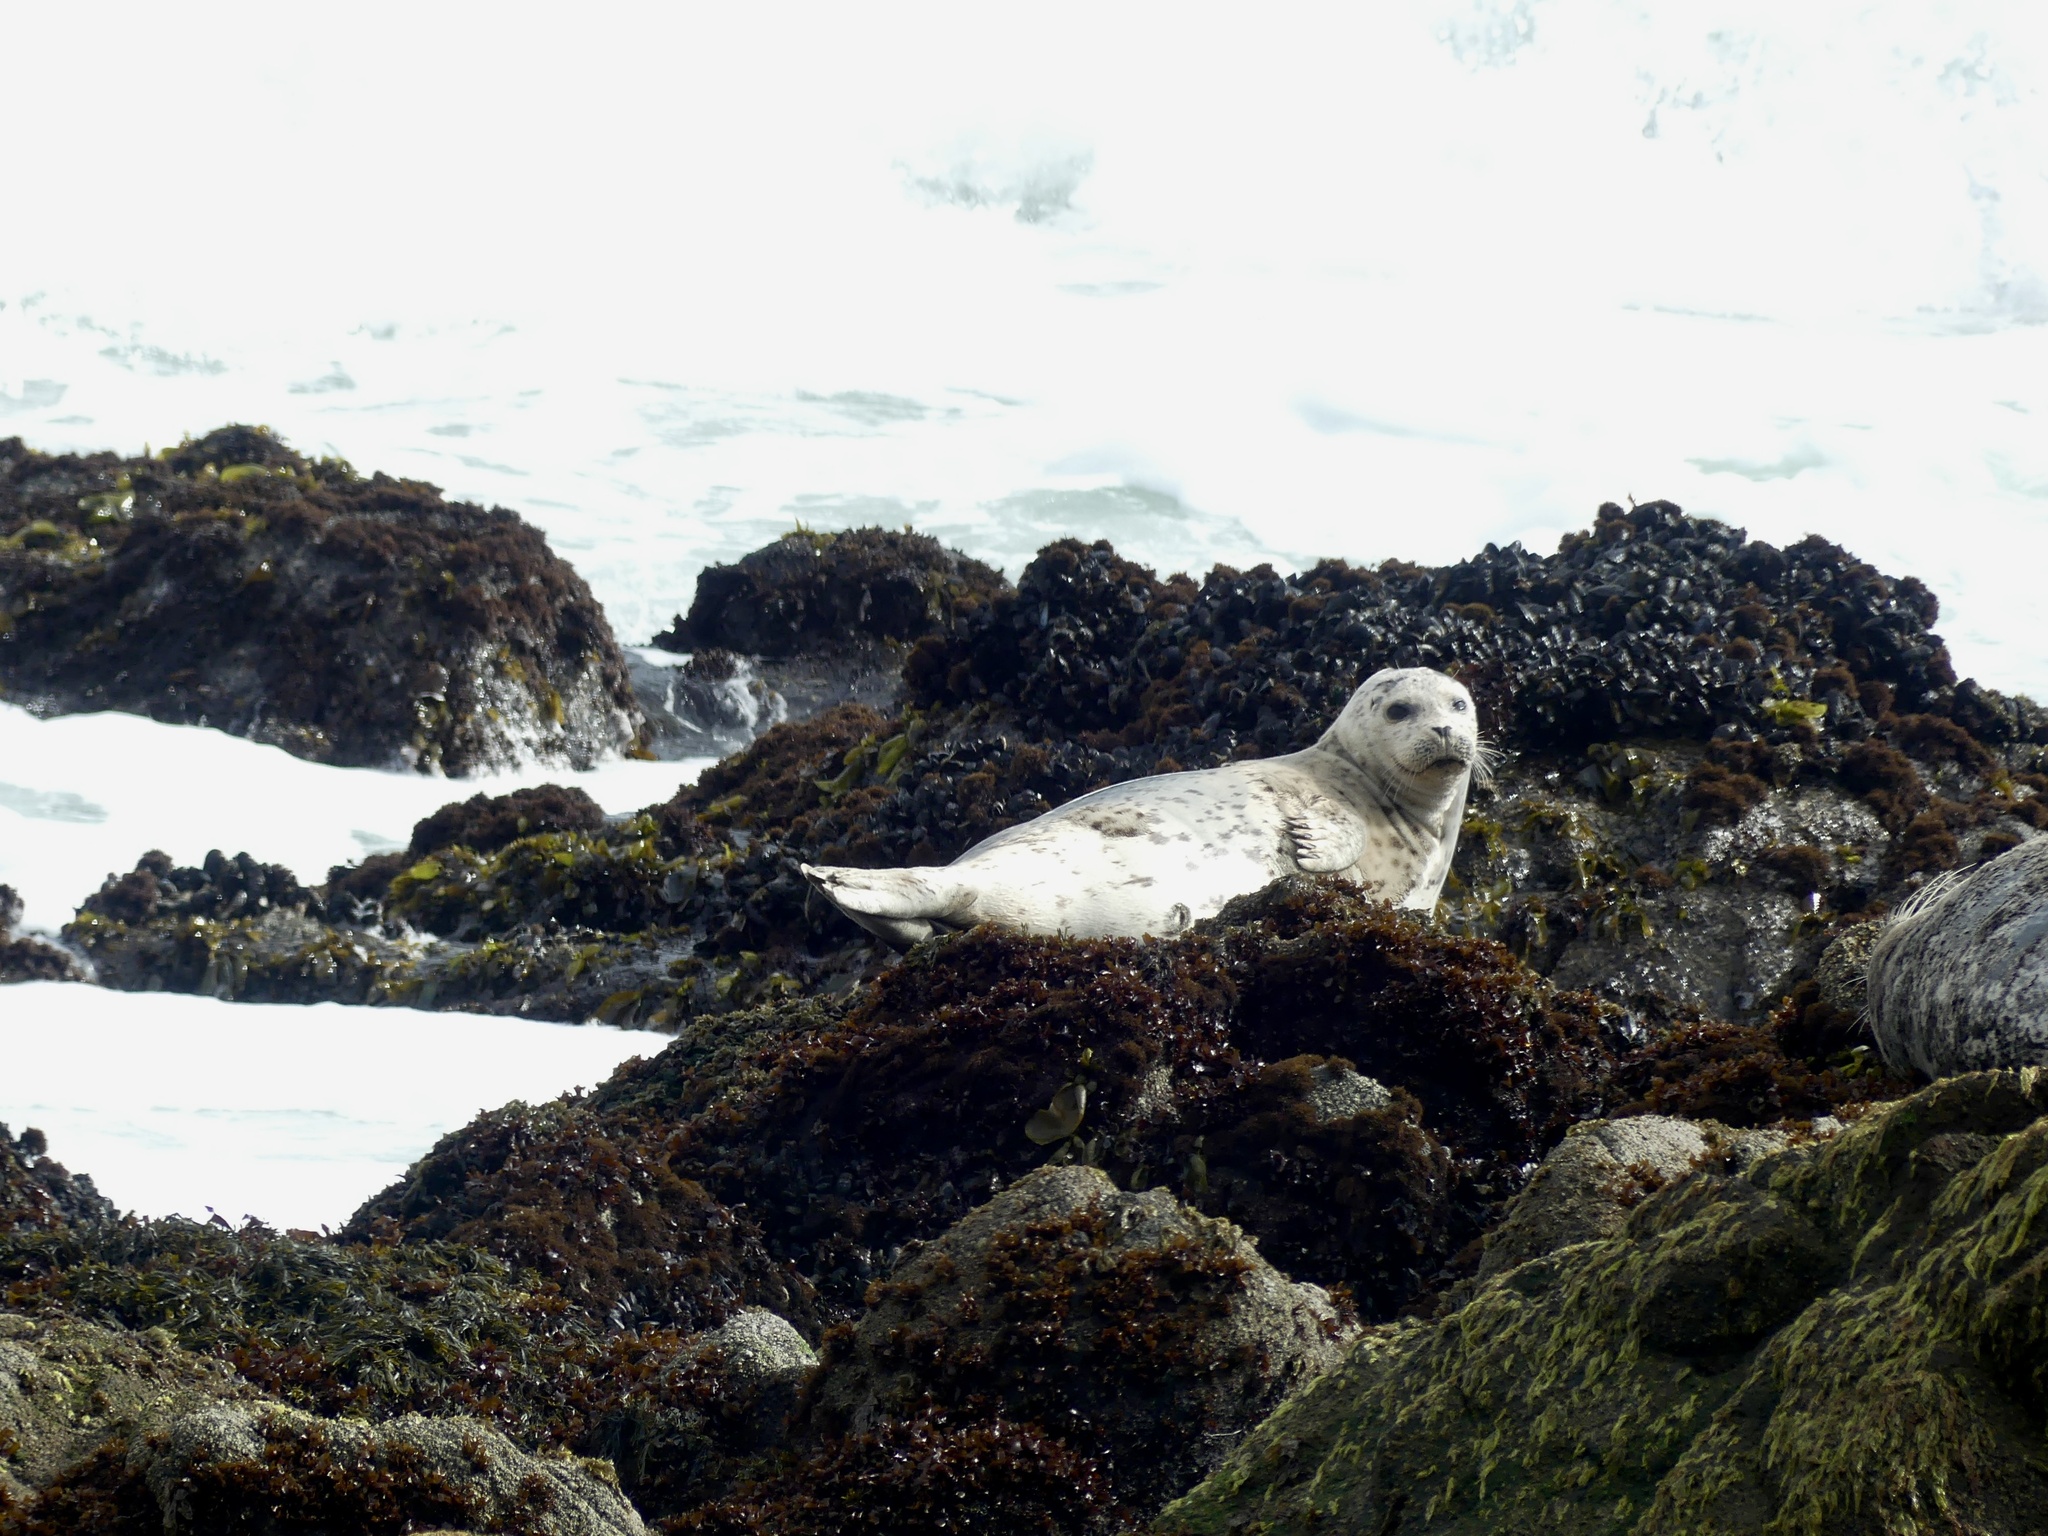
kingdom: Animalia
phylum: Chordata
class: Mammalia
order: Carnivora
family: Phocidae
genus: Phoca
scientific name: Phoca vitulina
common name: Harbor seal
